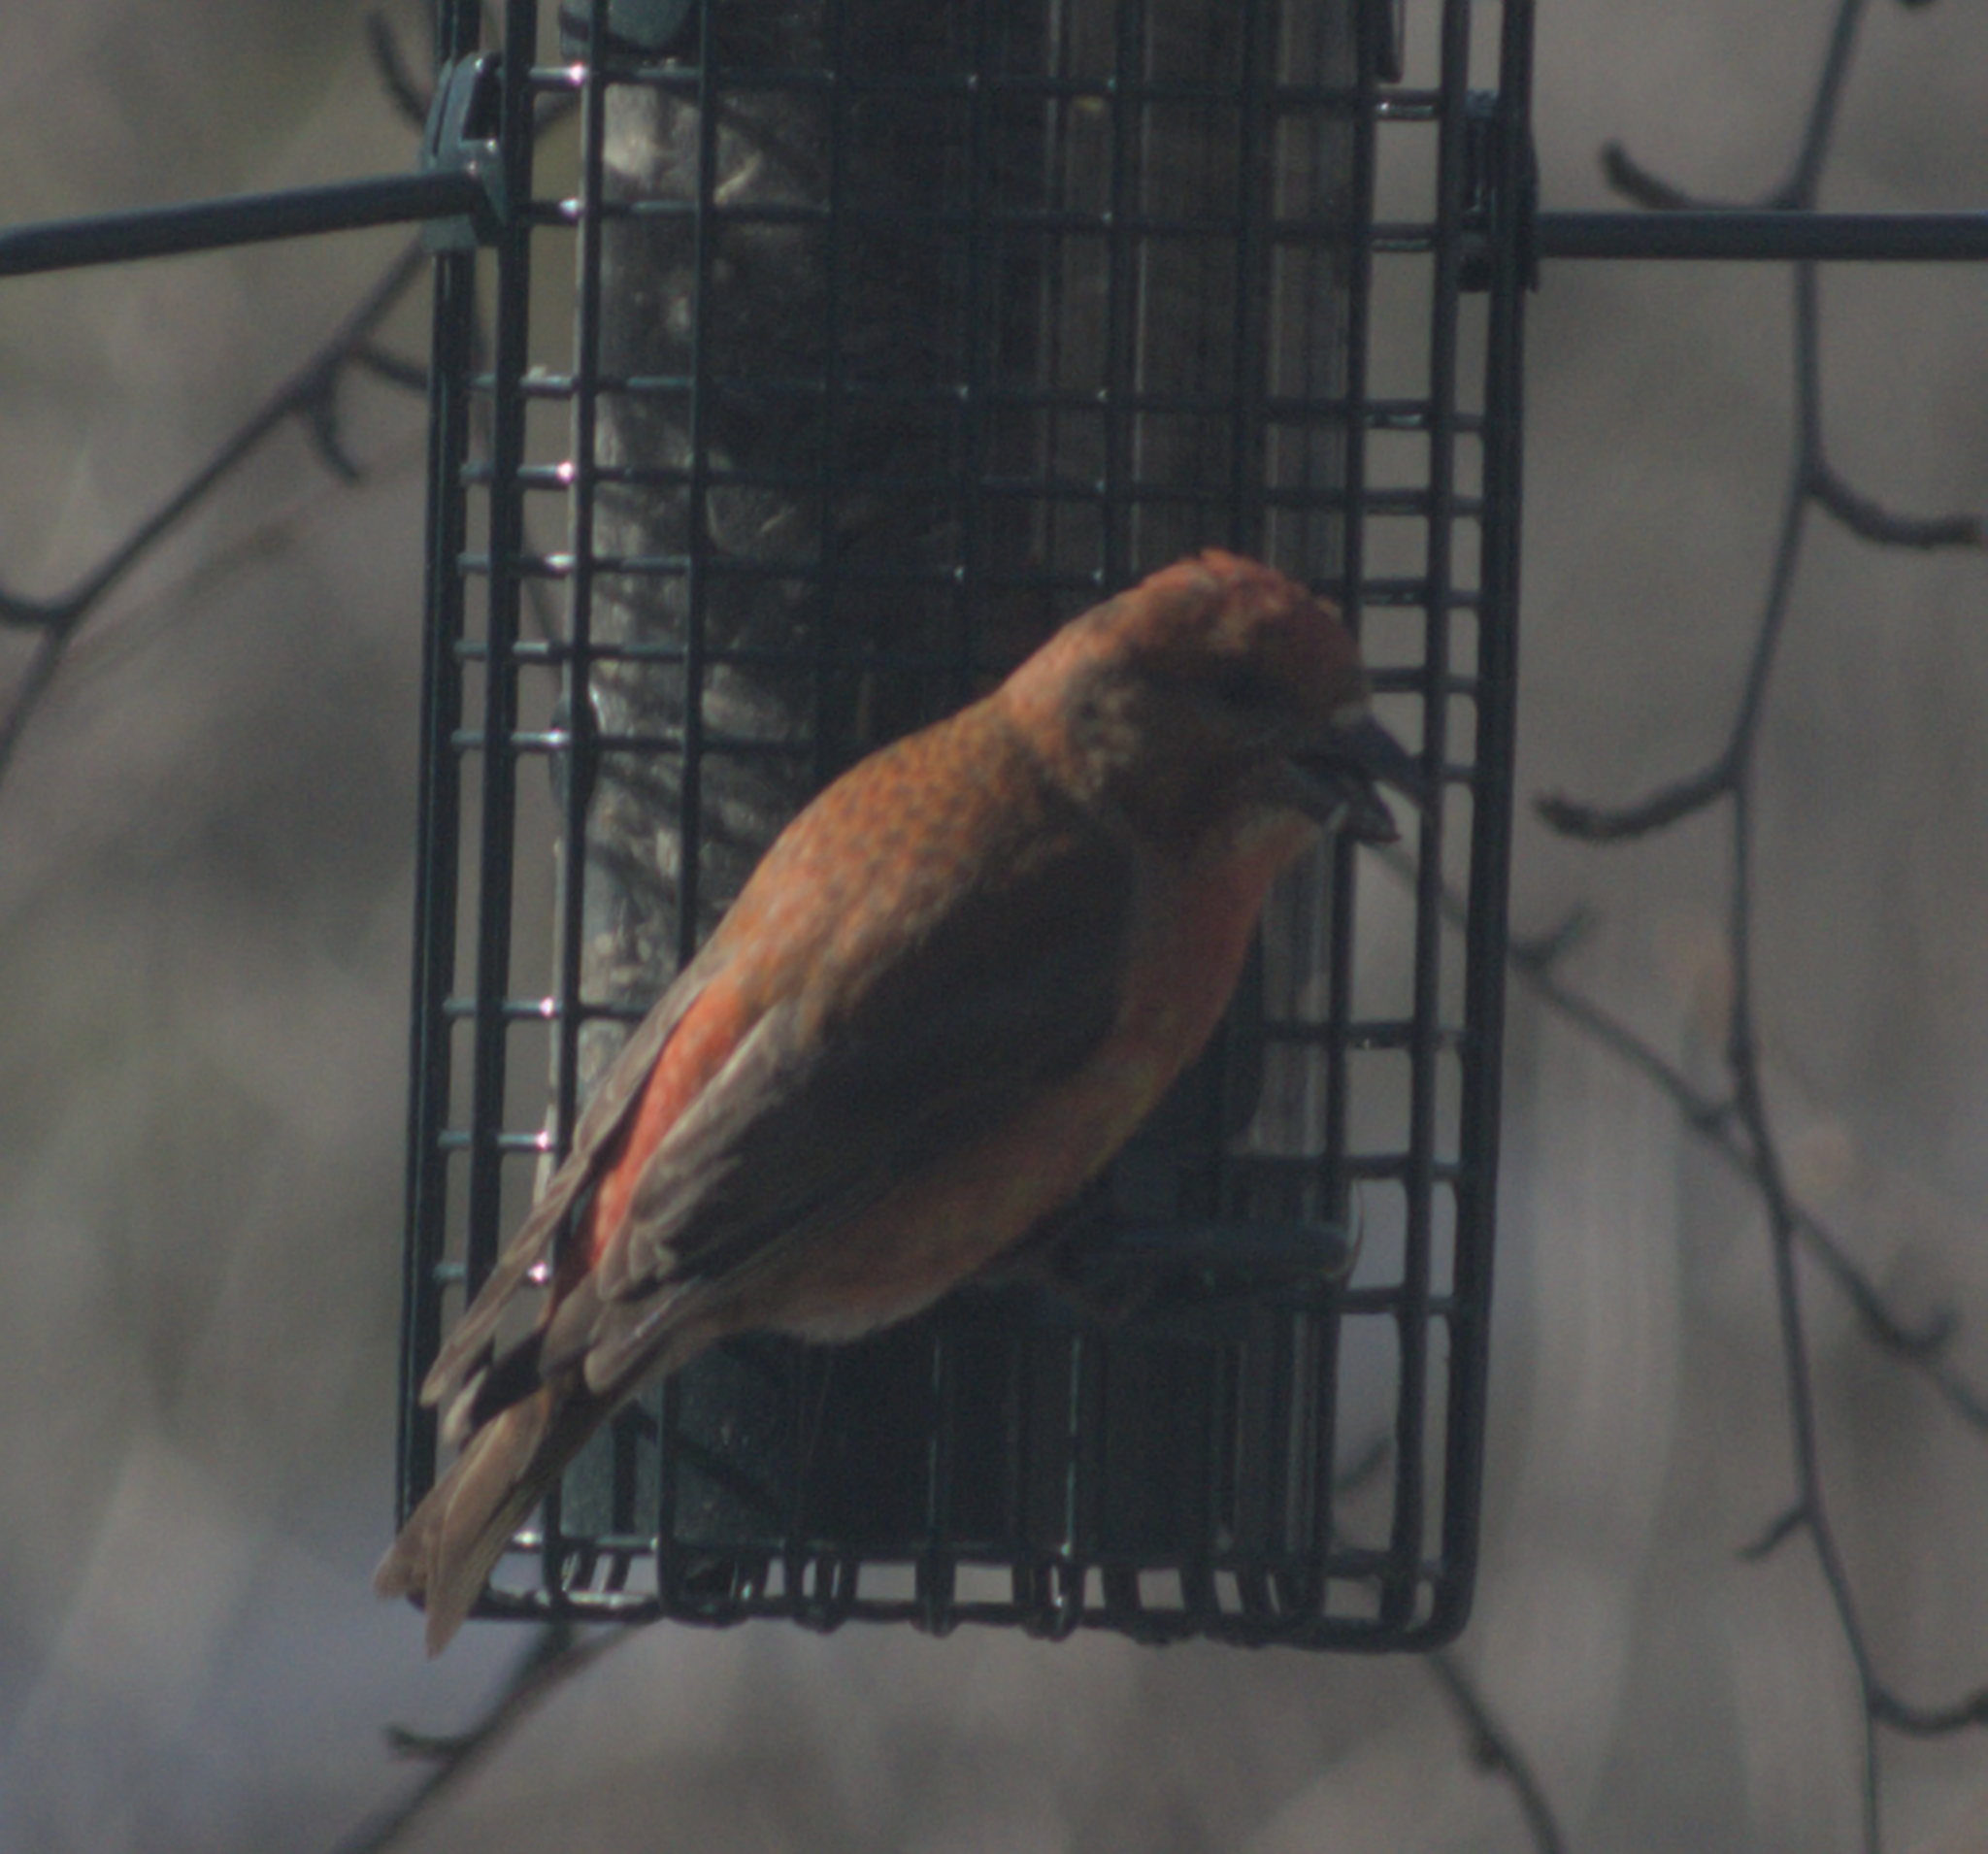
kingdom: Animalia
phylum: Chordata
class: Aves
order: Passeriformes
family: Fringillidae
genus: Loxia
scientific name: Loxia curvirostra
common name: Red crossbill
